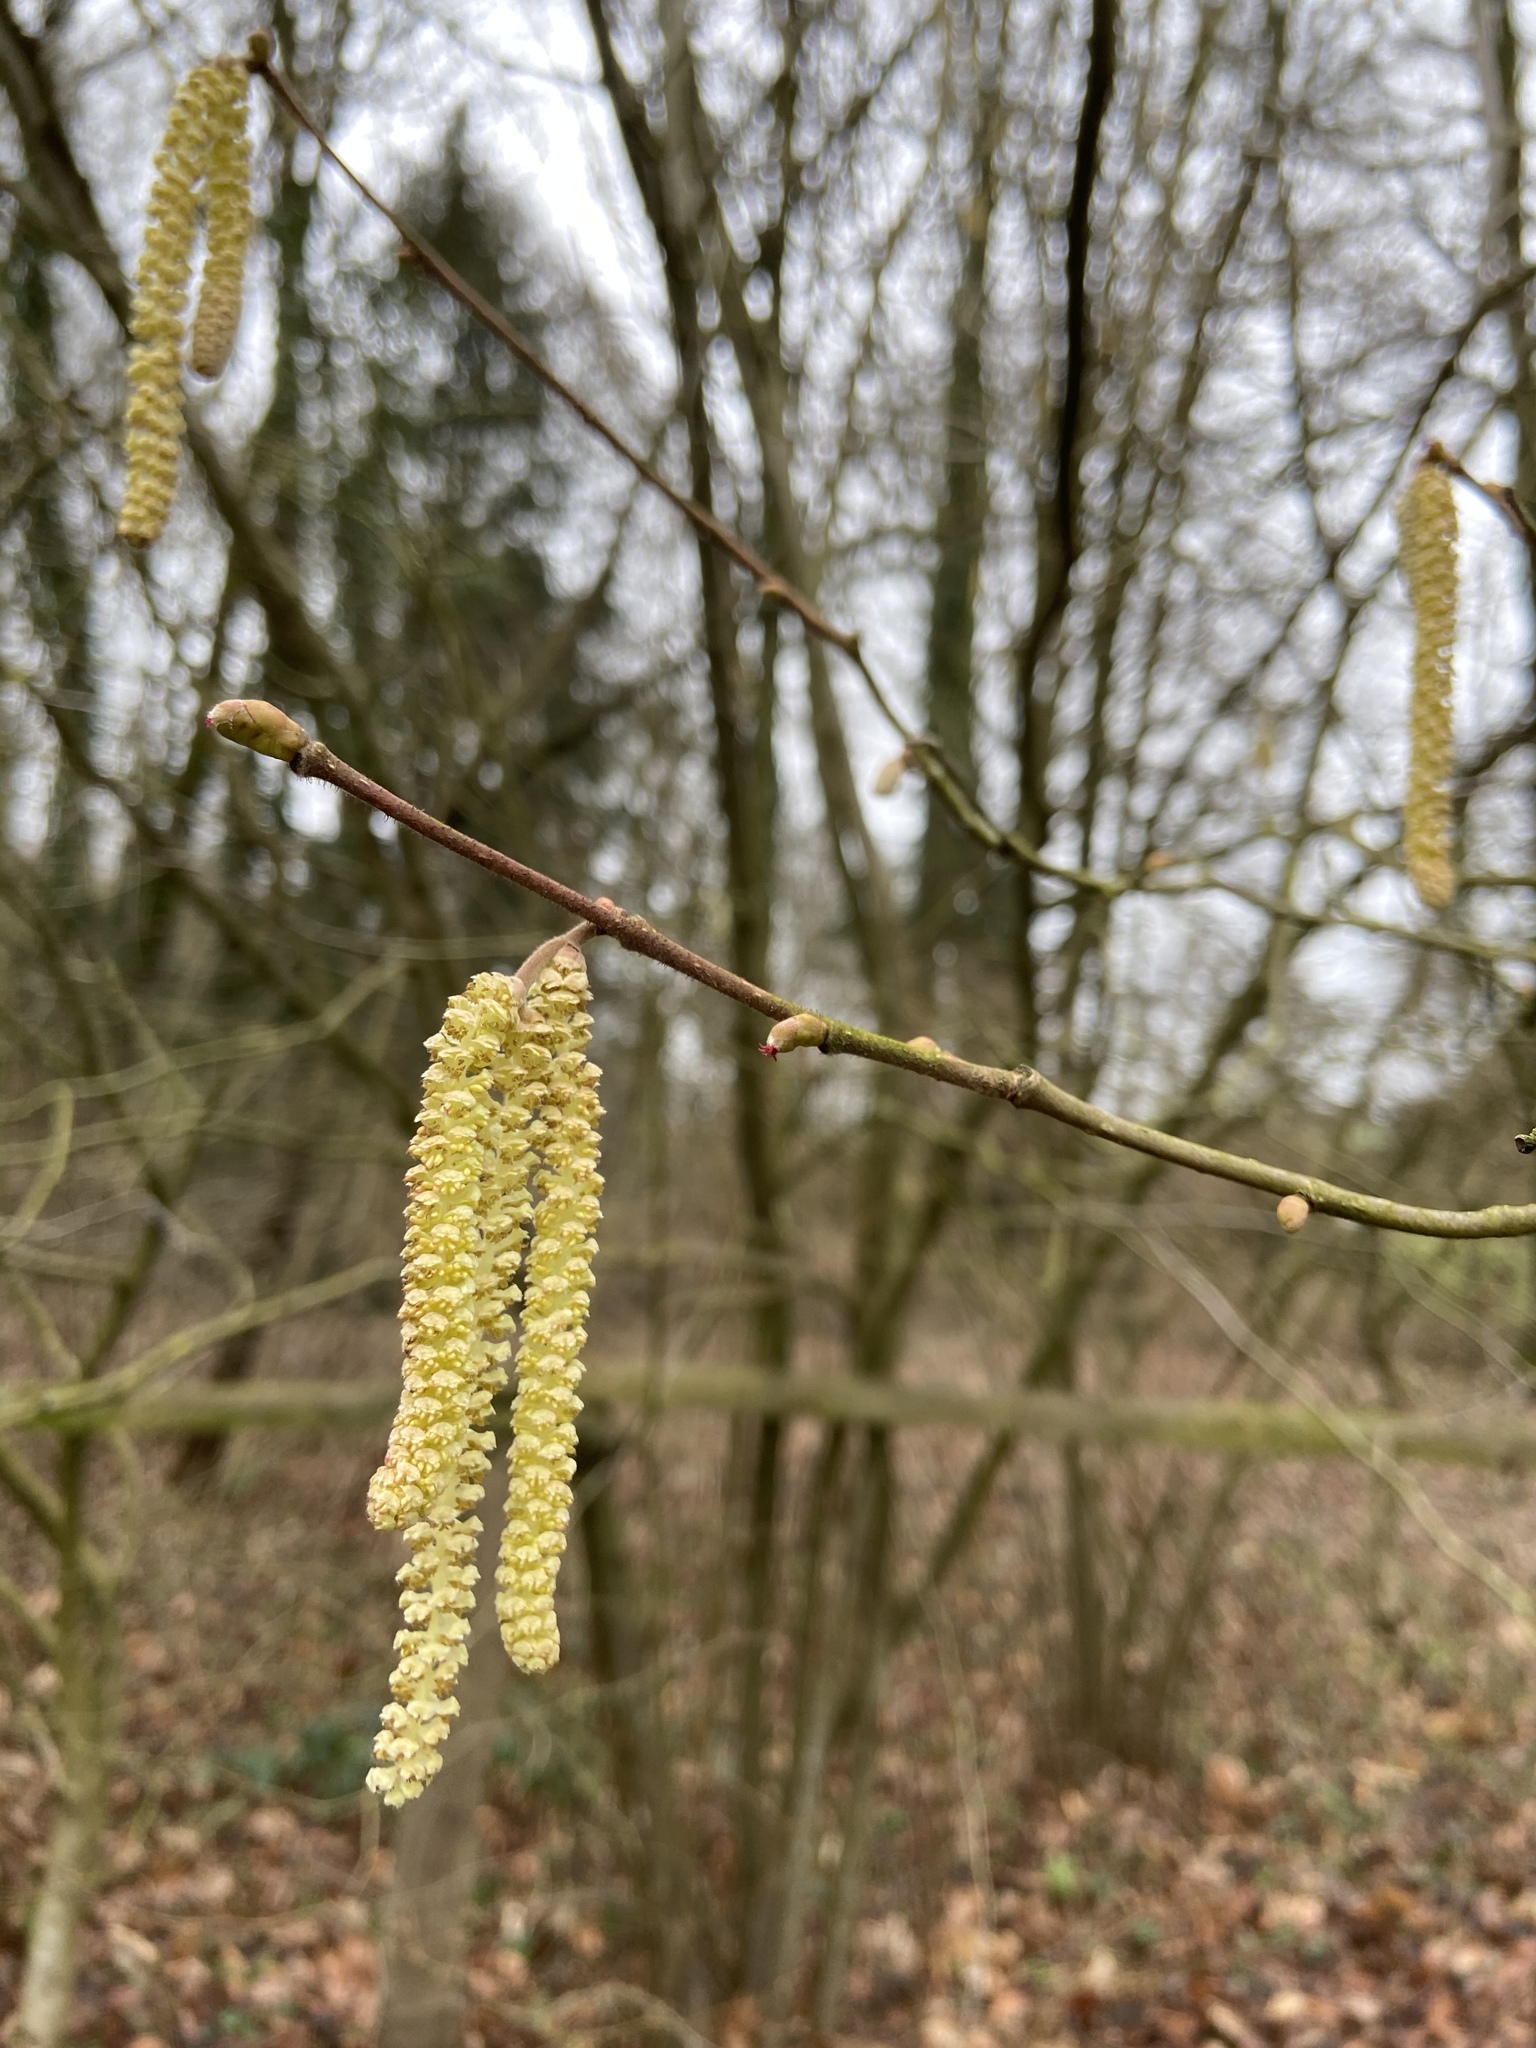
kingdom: Plantae
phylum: Tracheophyta
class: Magnoliopsida
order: Fagales
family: Betulaceae
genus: Corylus
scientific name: Corylus avellana
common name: European hazel
